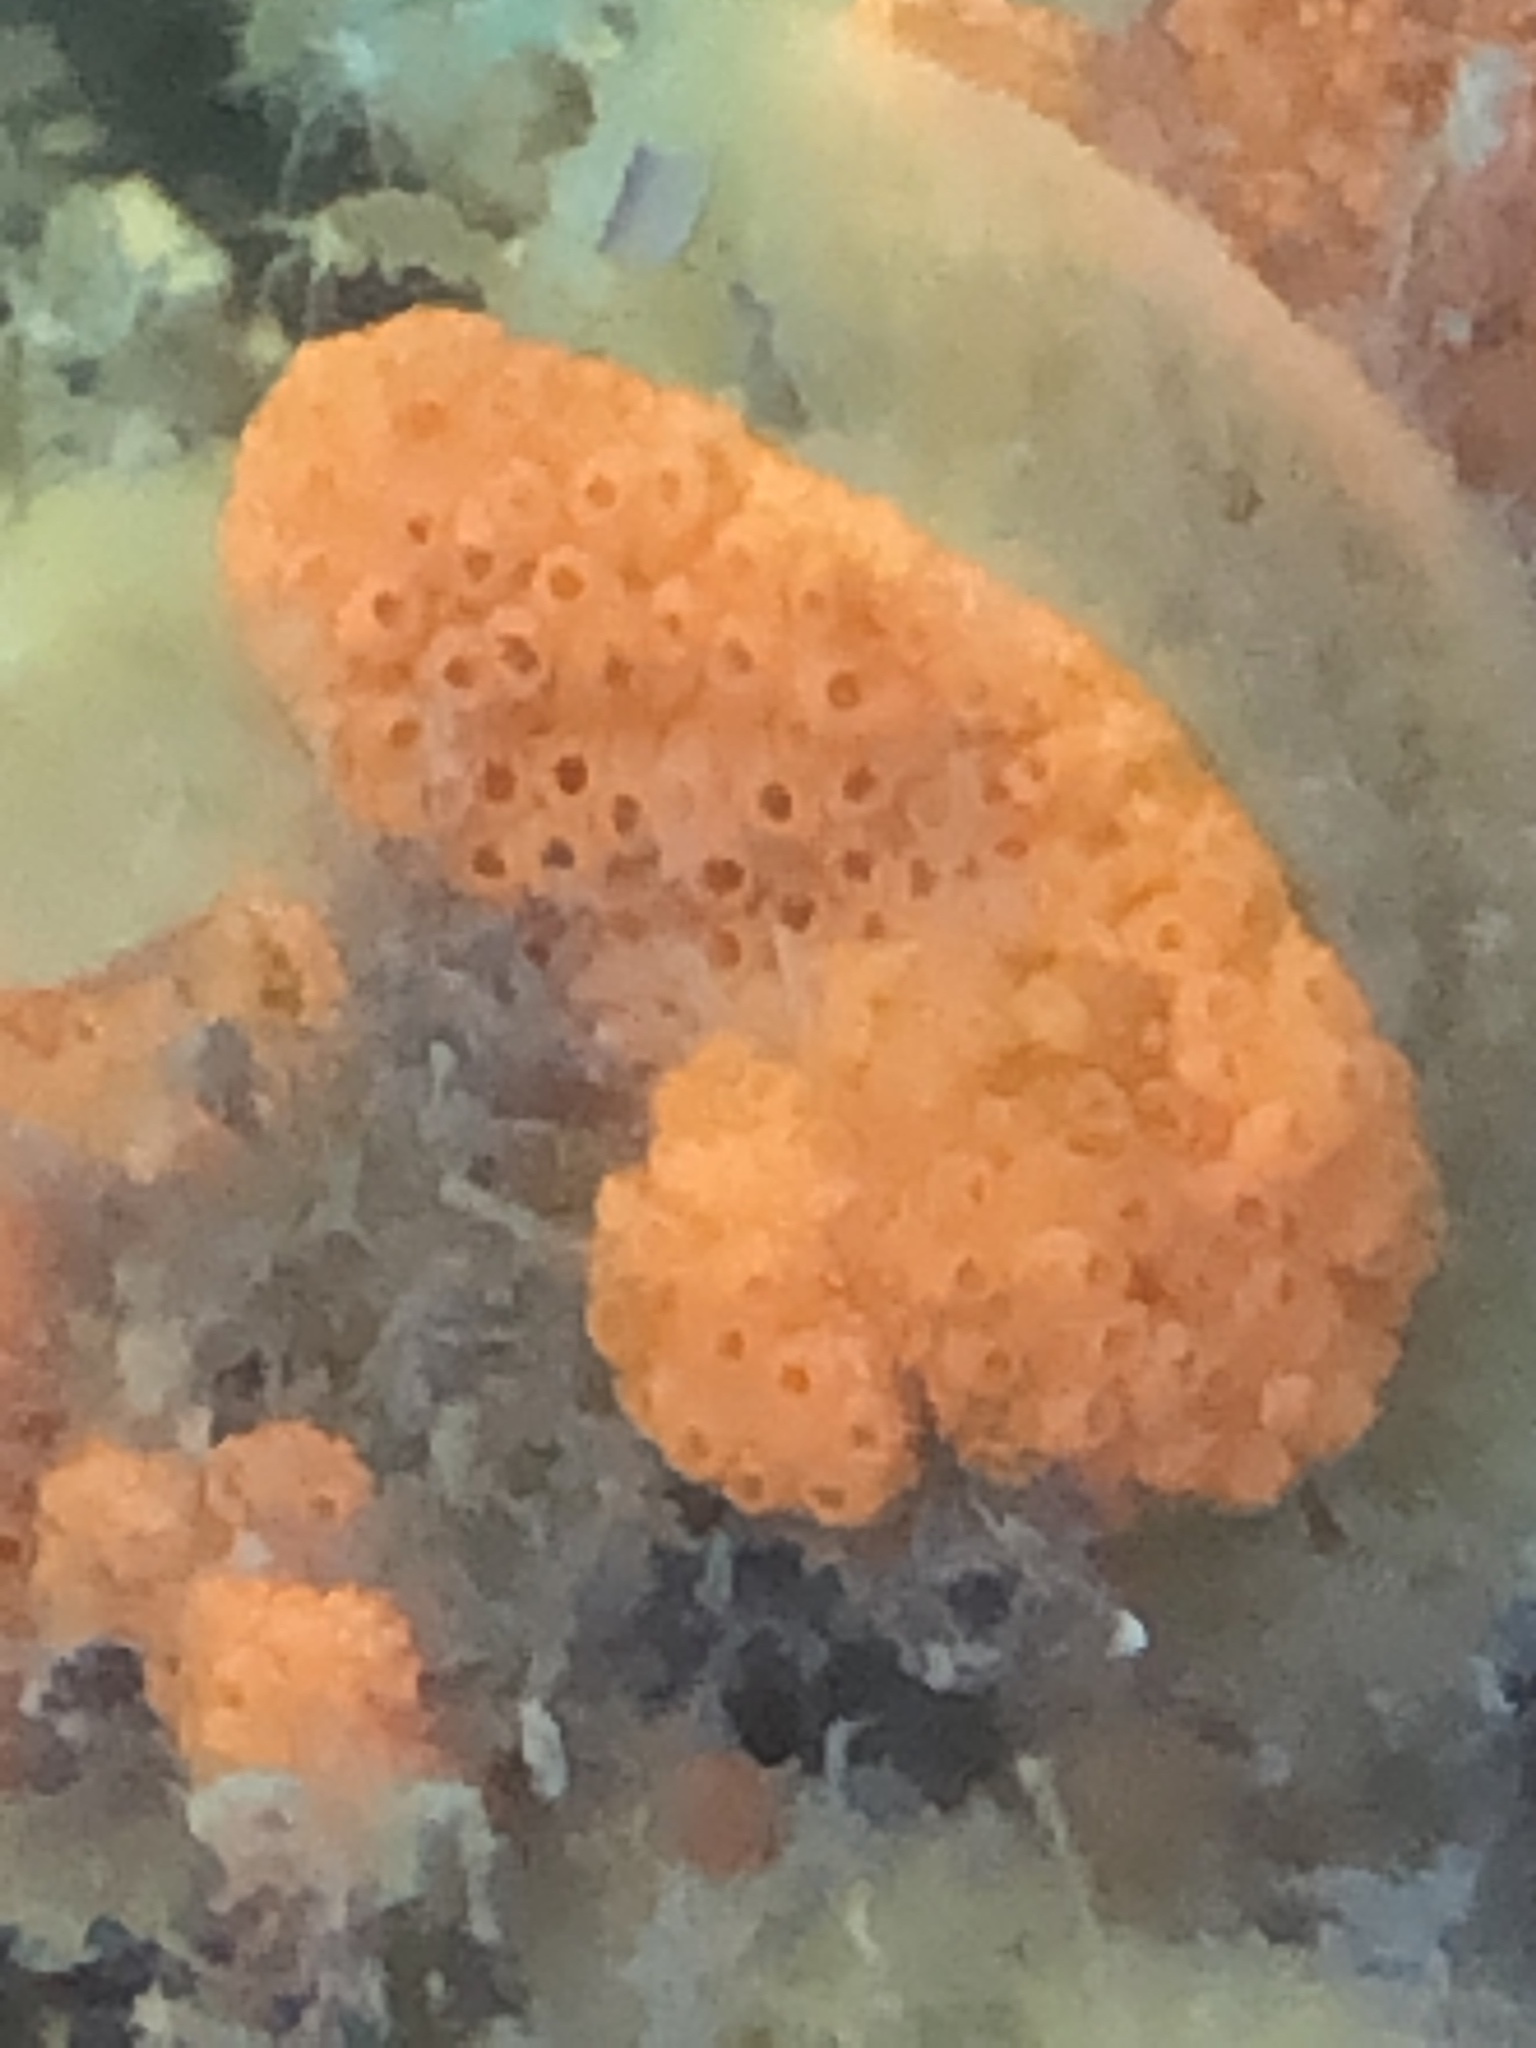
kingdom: Animalia
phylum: Chordata
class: Ascidiacea
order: Stolidobranchia
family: Styelidae
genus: Botrylloides
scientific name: Botrylloides violaceus
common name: Colonial sea squirt
